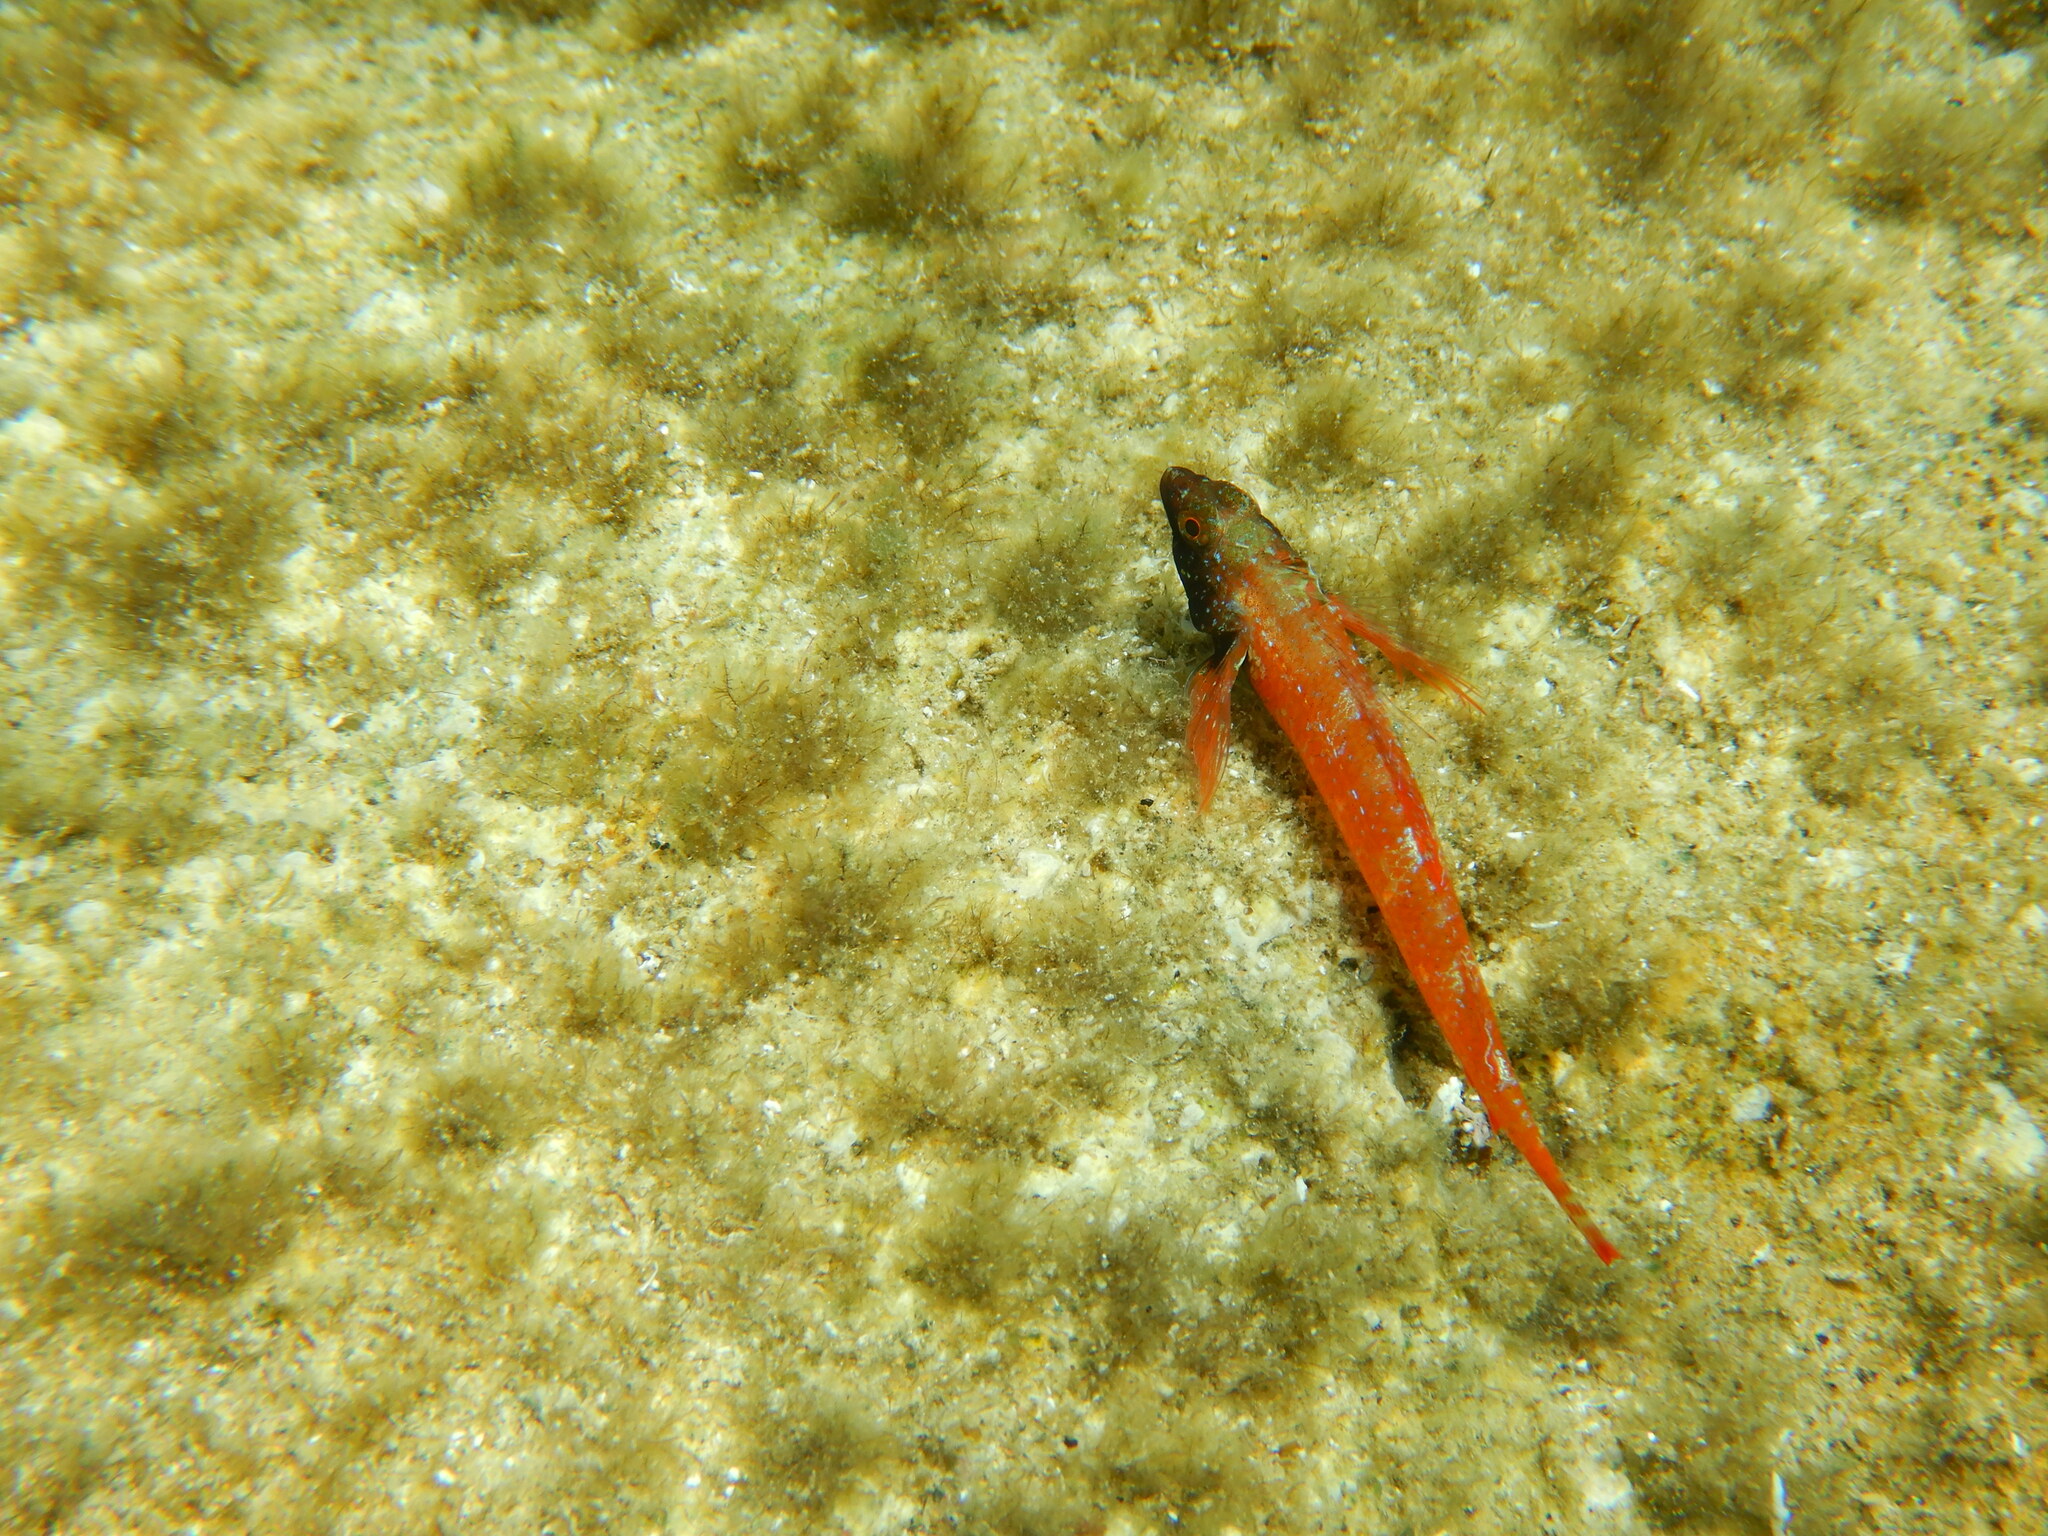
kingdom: Animalia
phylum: Chordata
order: Perciformes
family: Tripterygiidae
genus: Tripterygion
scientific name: Tripterygion tripteronotum
